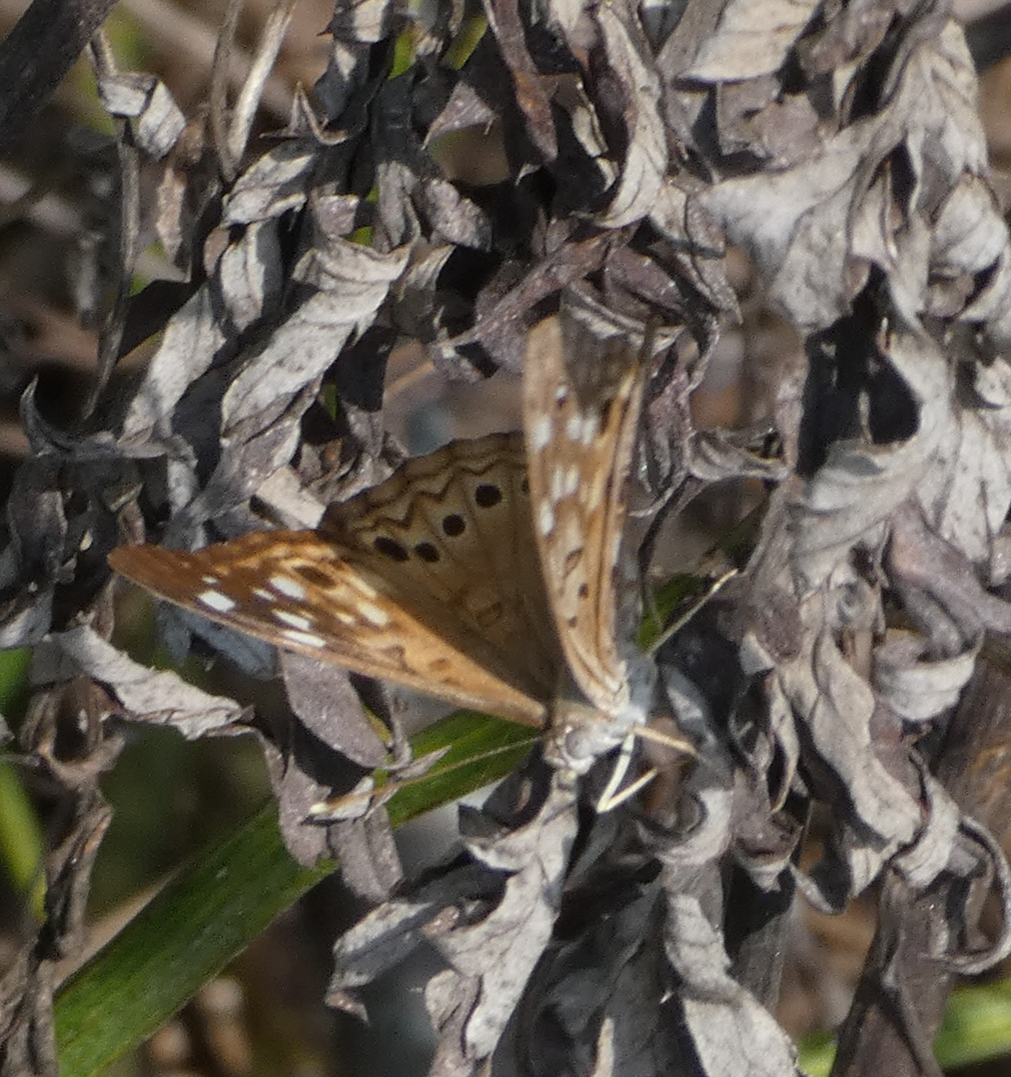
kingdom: Animalia
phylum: Arthropoda
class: Insecta
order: Lepidoptera
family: Nymphalidae
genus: Asterocampa
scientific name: Asterocampa celtis
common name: Hackberry emperor
